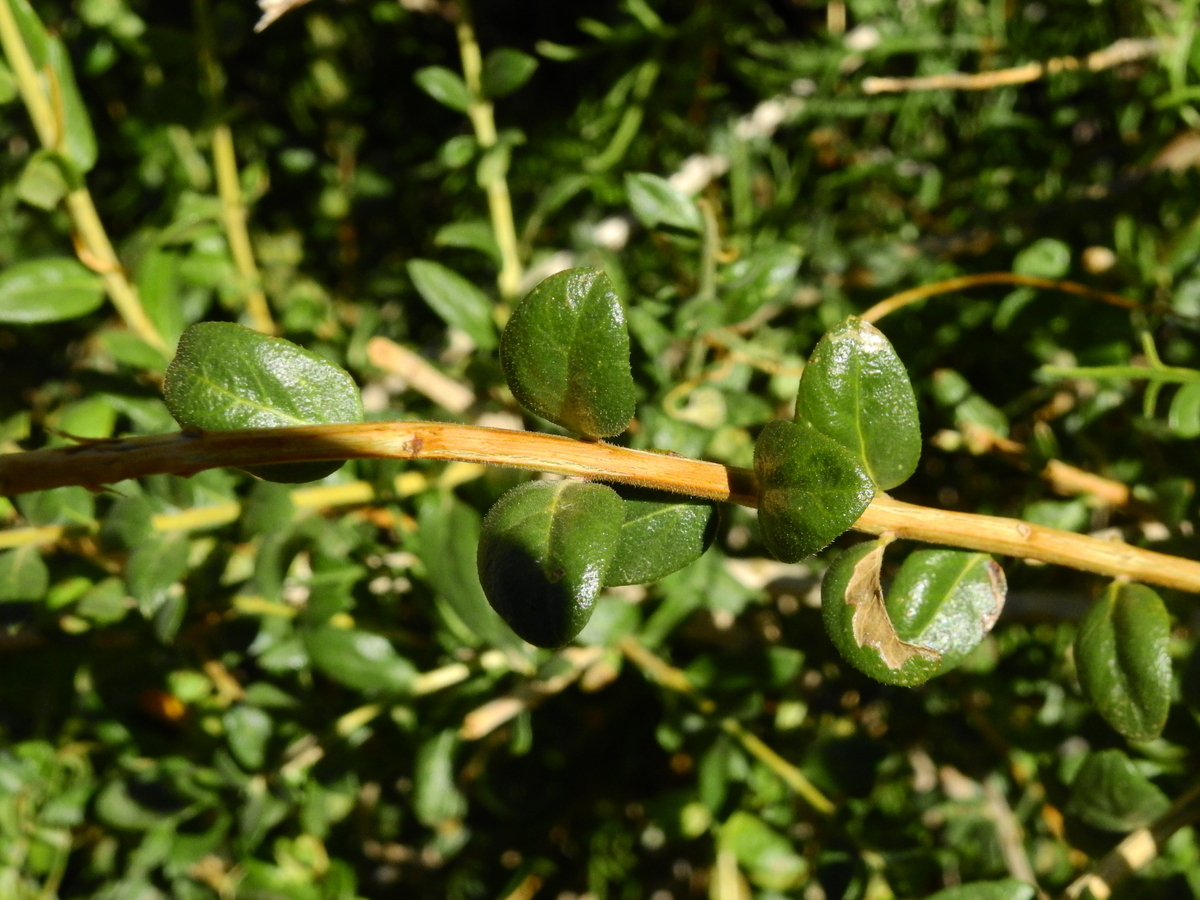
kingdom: Plantae
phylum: Tracheophyta
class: Magnoliopsida
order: Lamiales
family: Verbenaceae
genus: Mulguraea
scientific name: Mulguraea ligustrina
